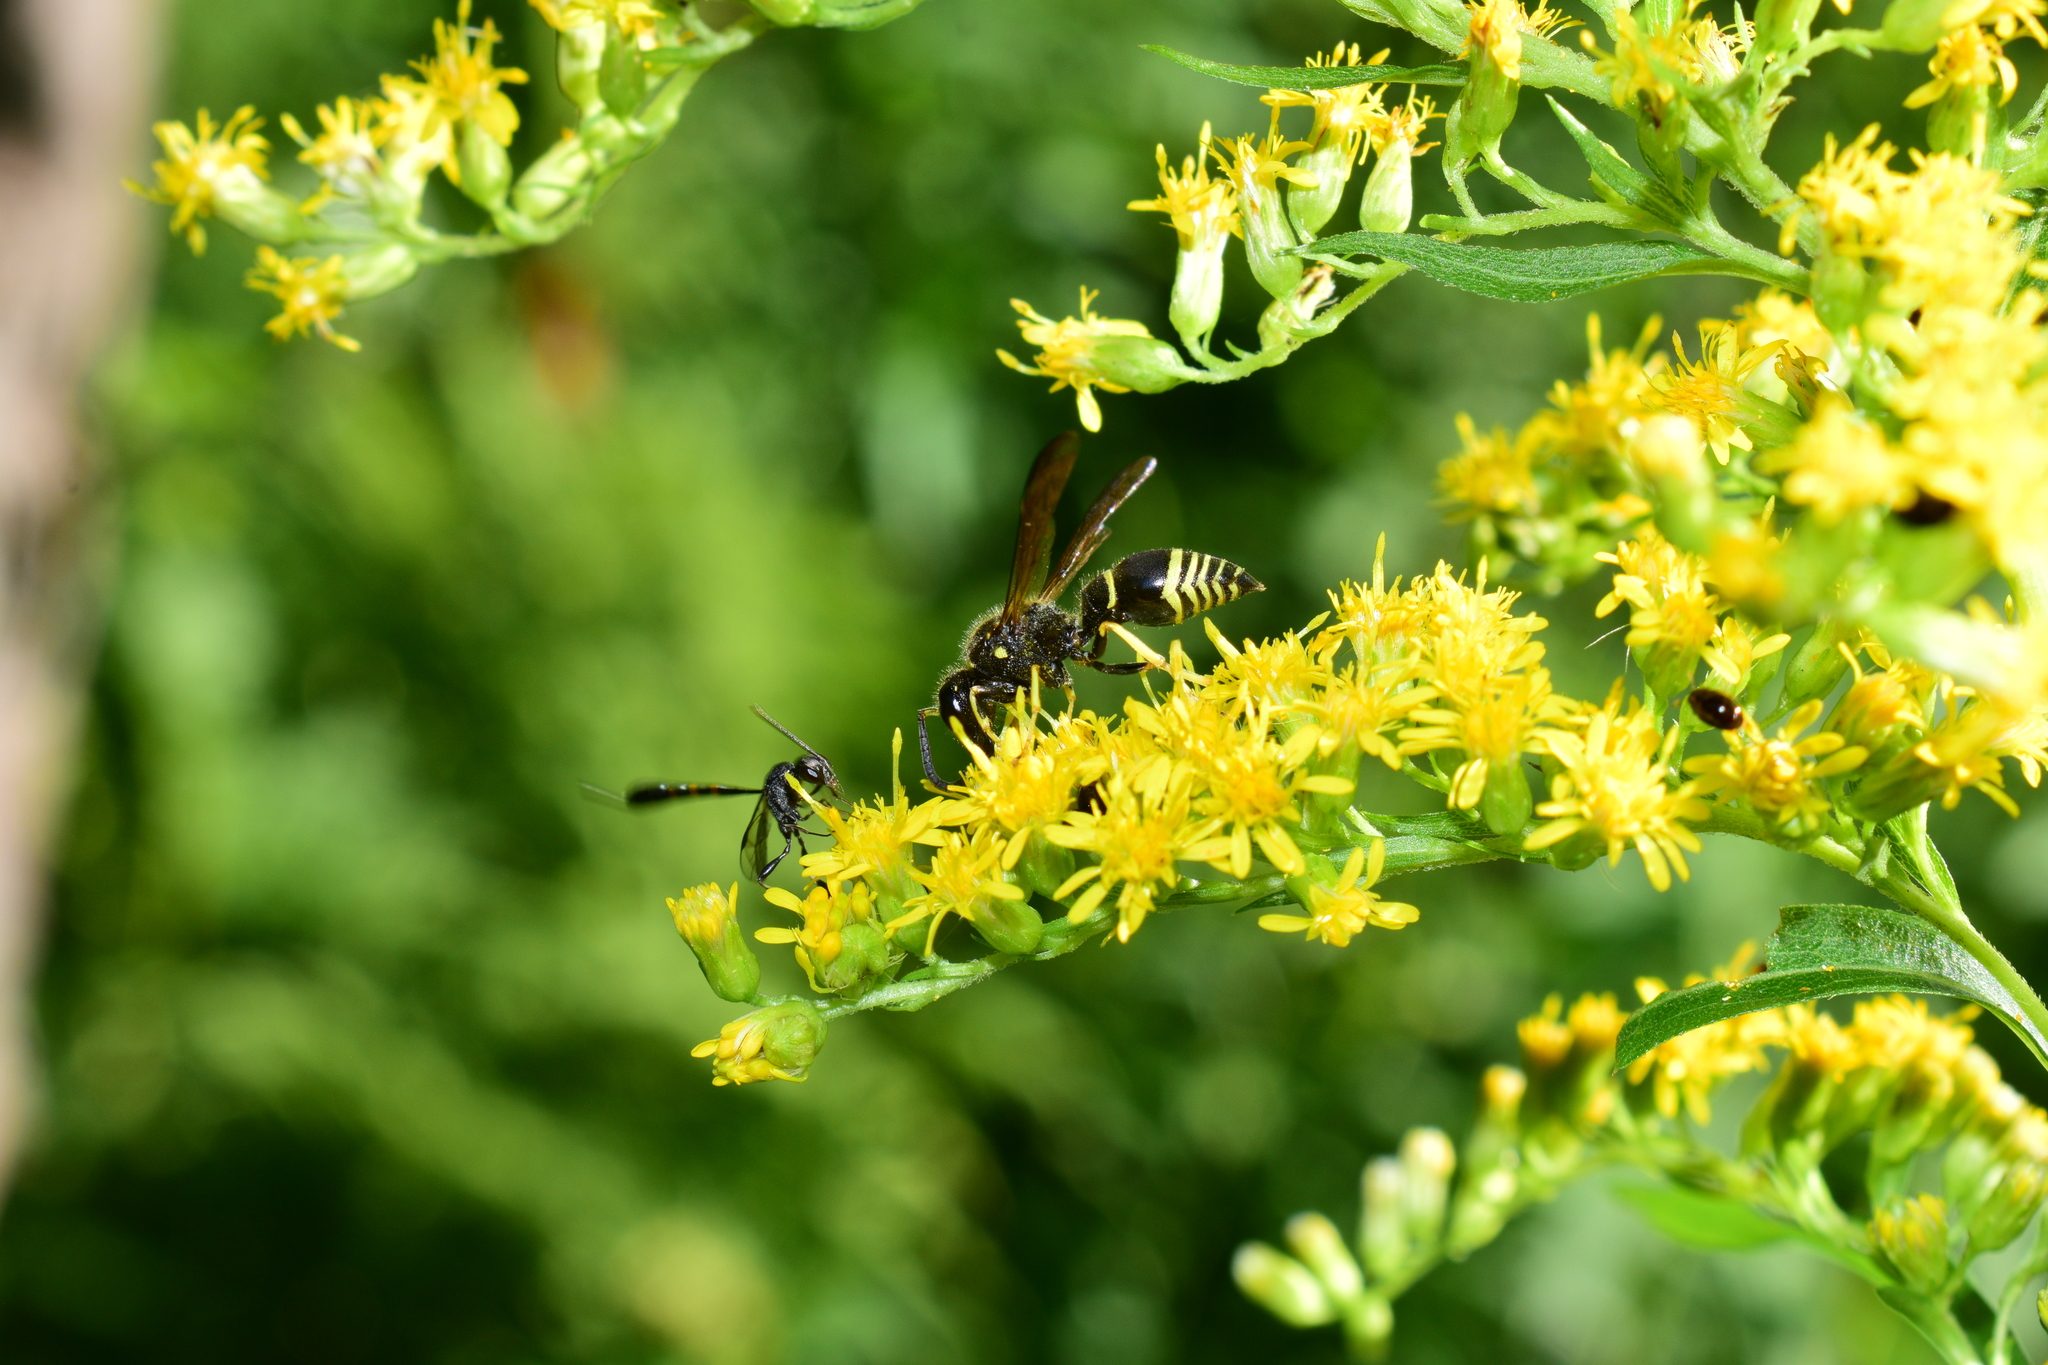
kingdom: Animalia
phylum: Arthropoda
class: Insecta
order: Hymenoptera
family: Vespidae
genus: Ancistrocerus
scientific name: Ancistrocerus
